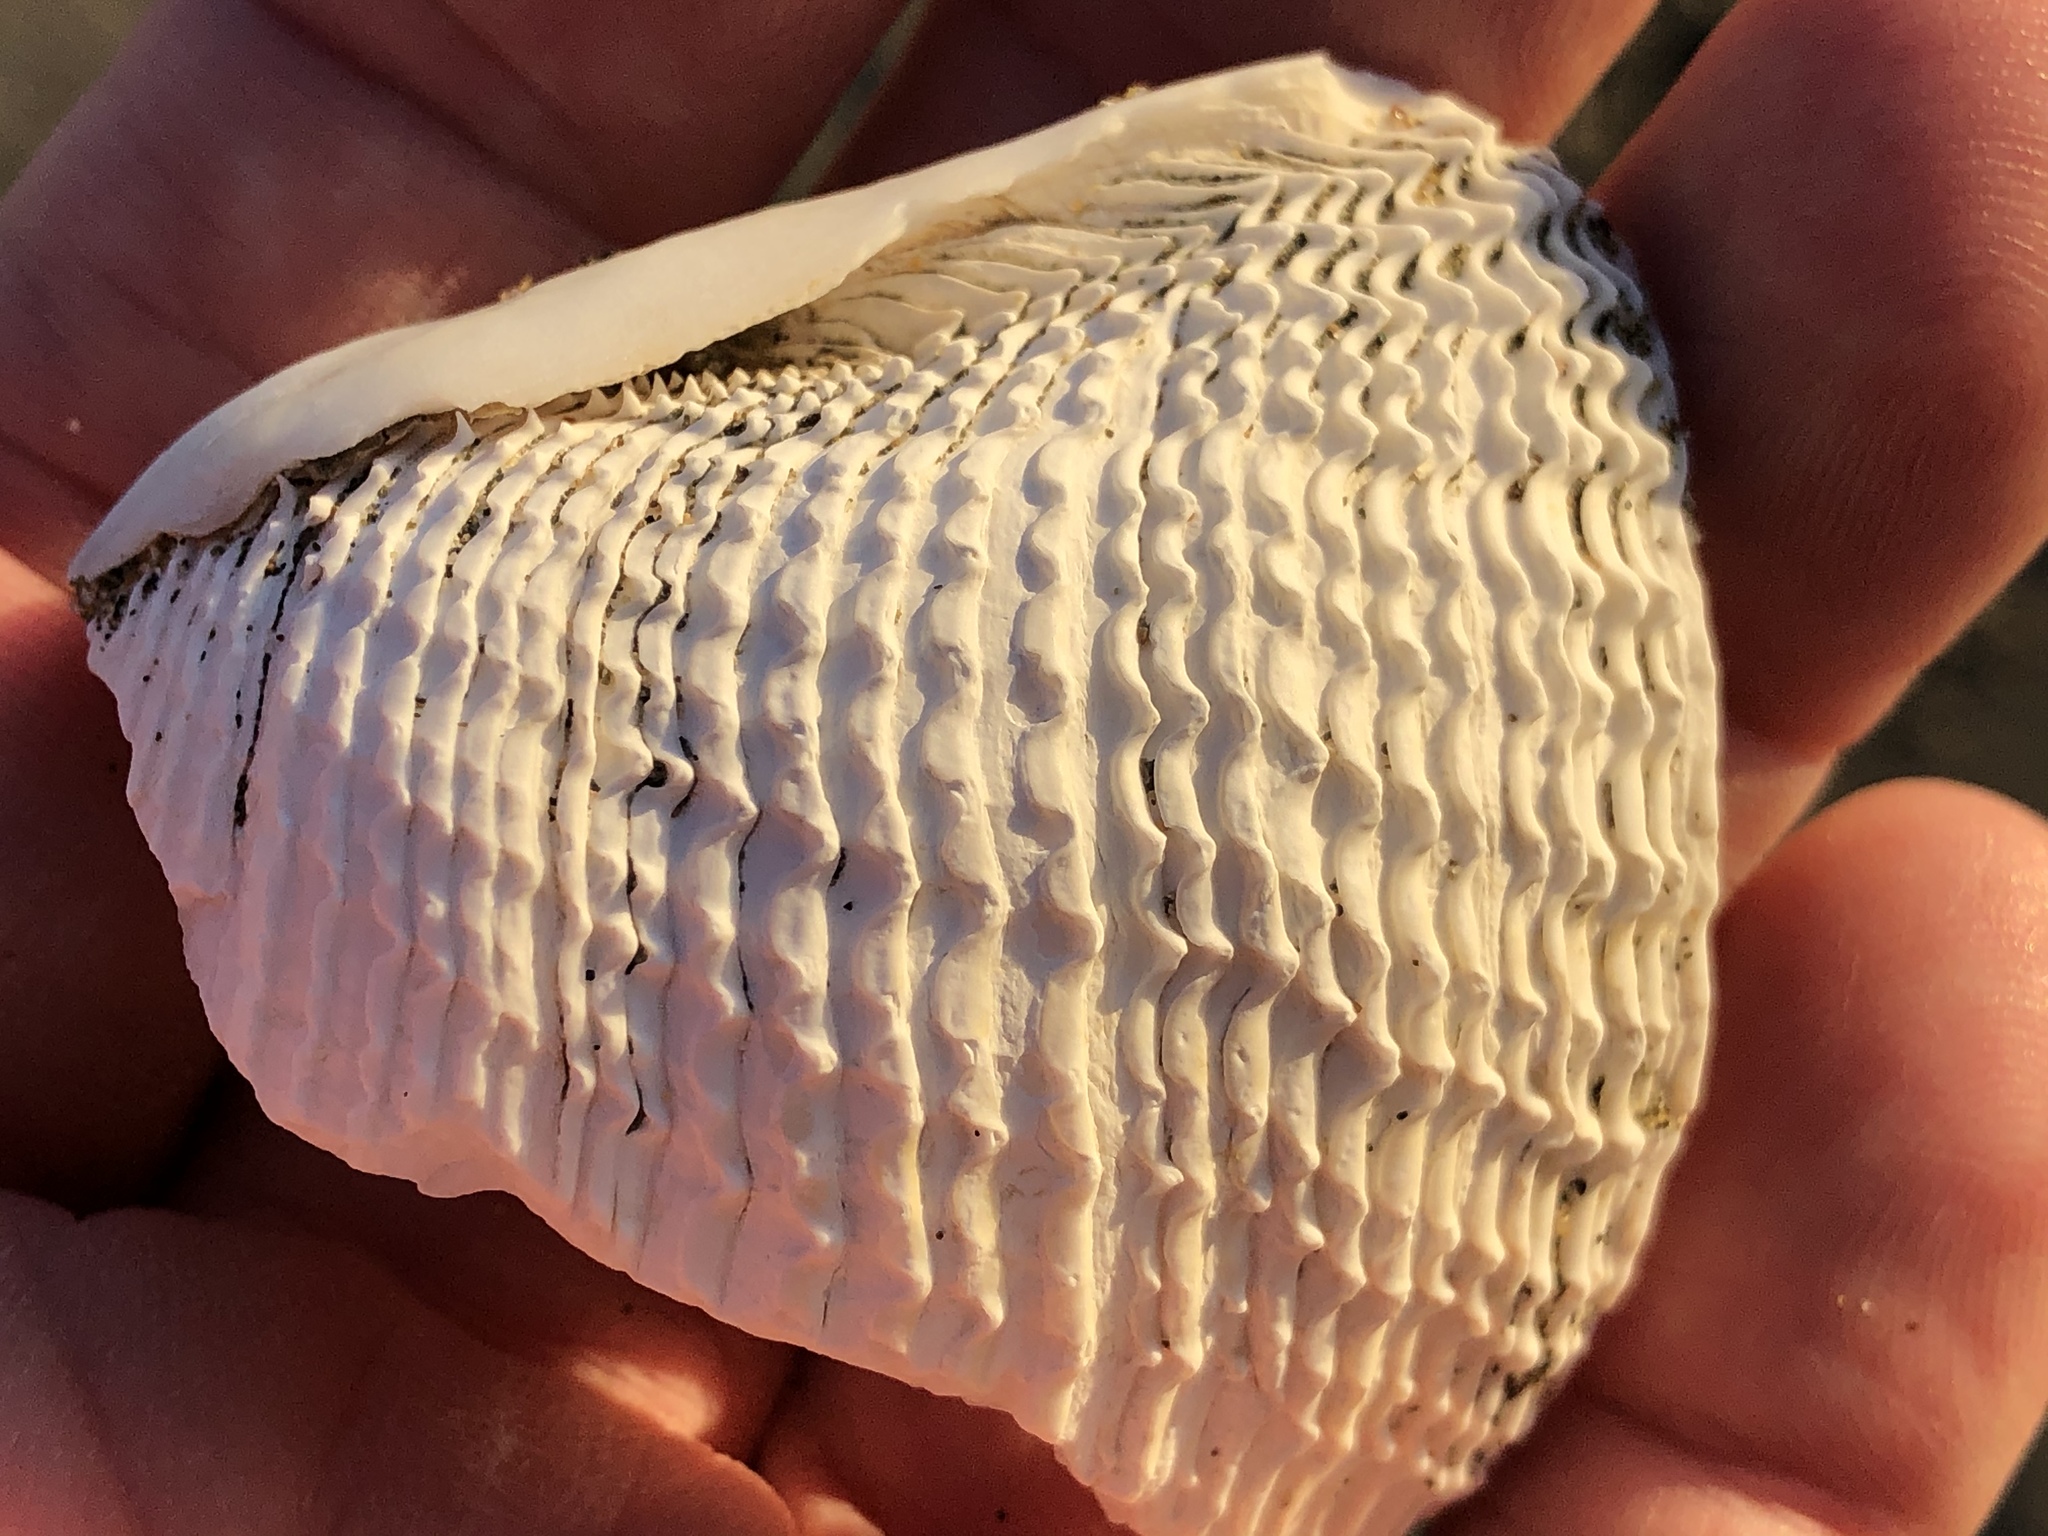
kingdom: Animalia
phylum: Mollusca
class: Bivalvia
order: Myida
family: Pholadidae
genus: Parapholas
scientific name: Parapholas californica
